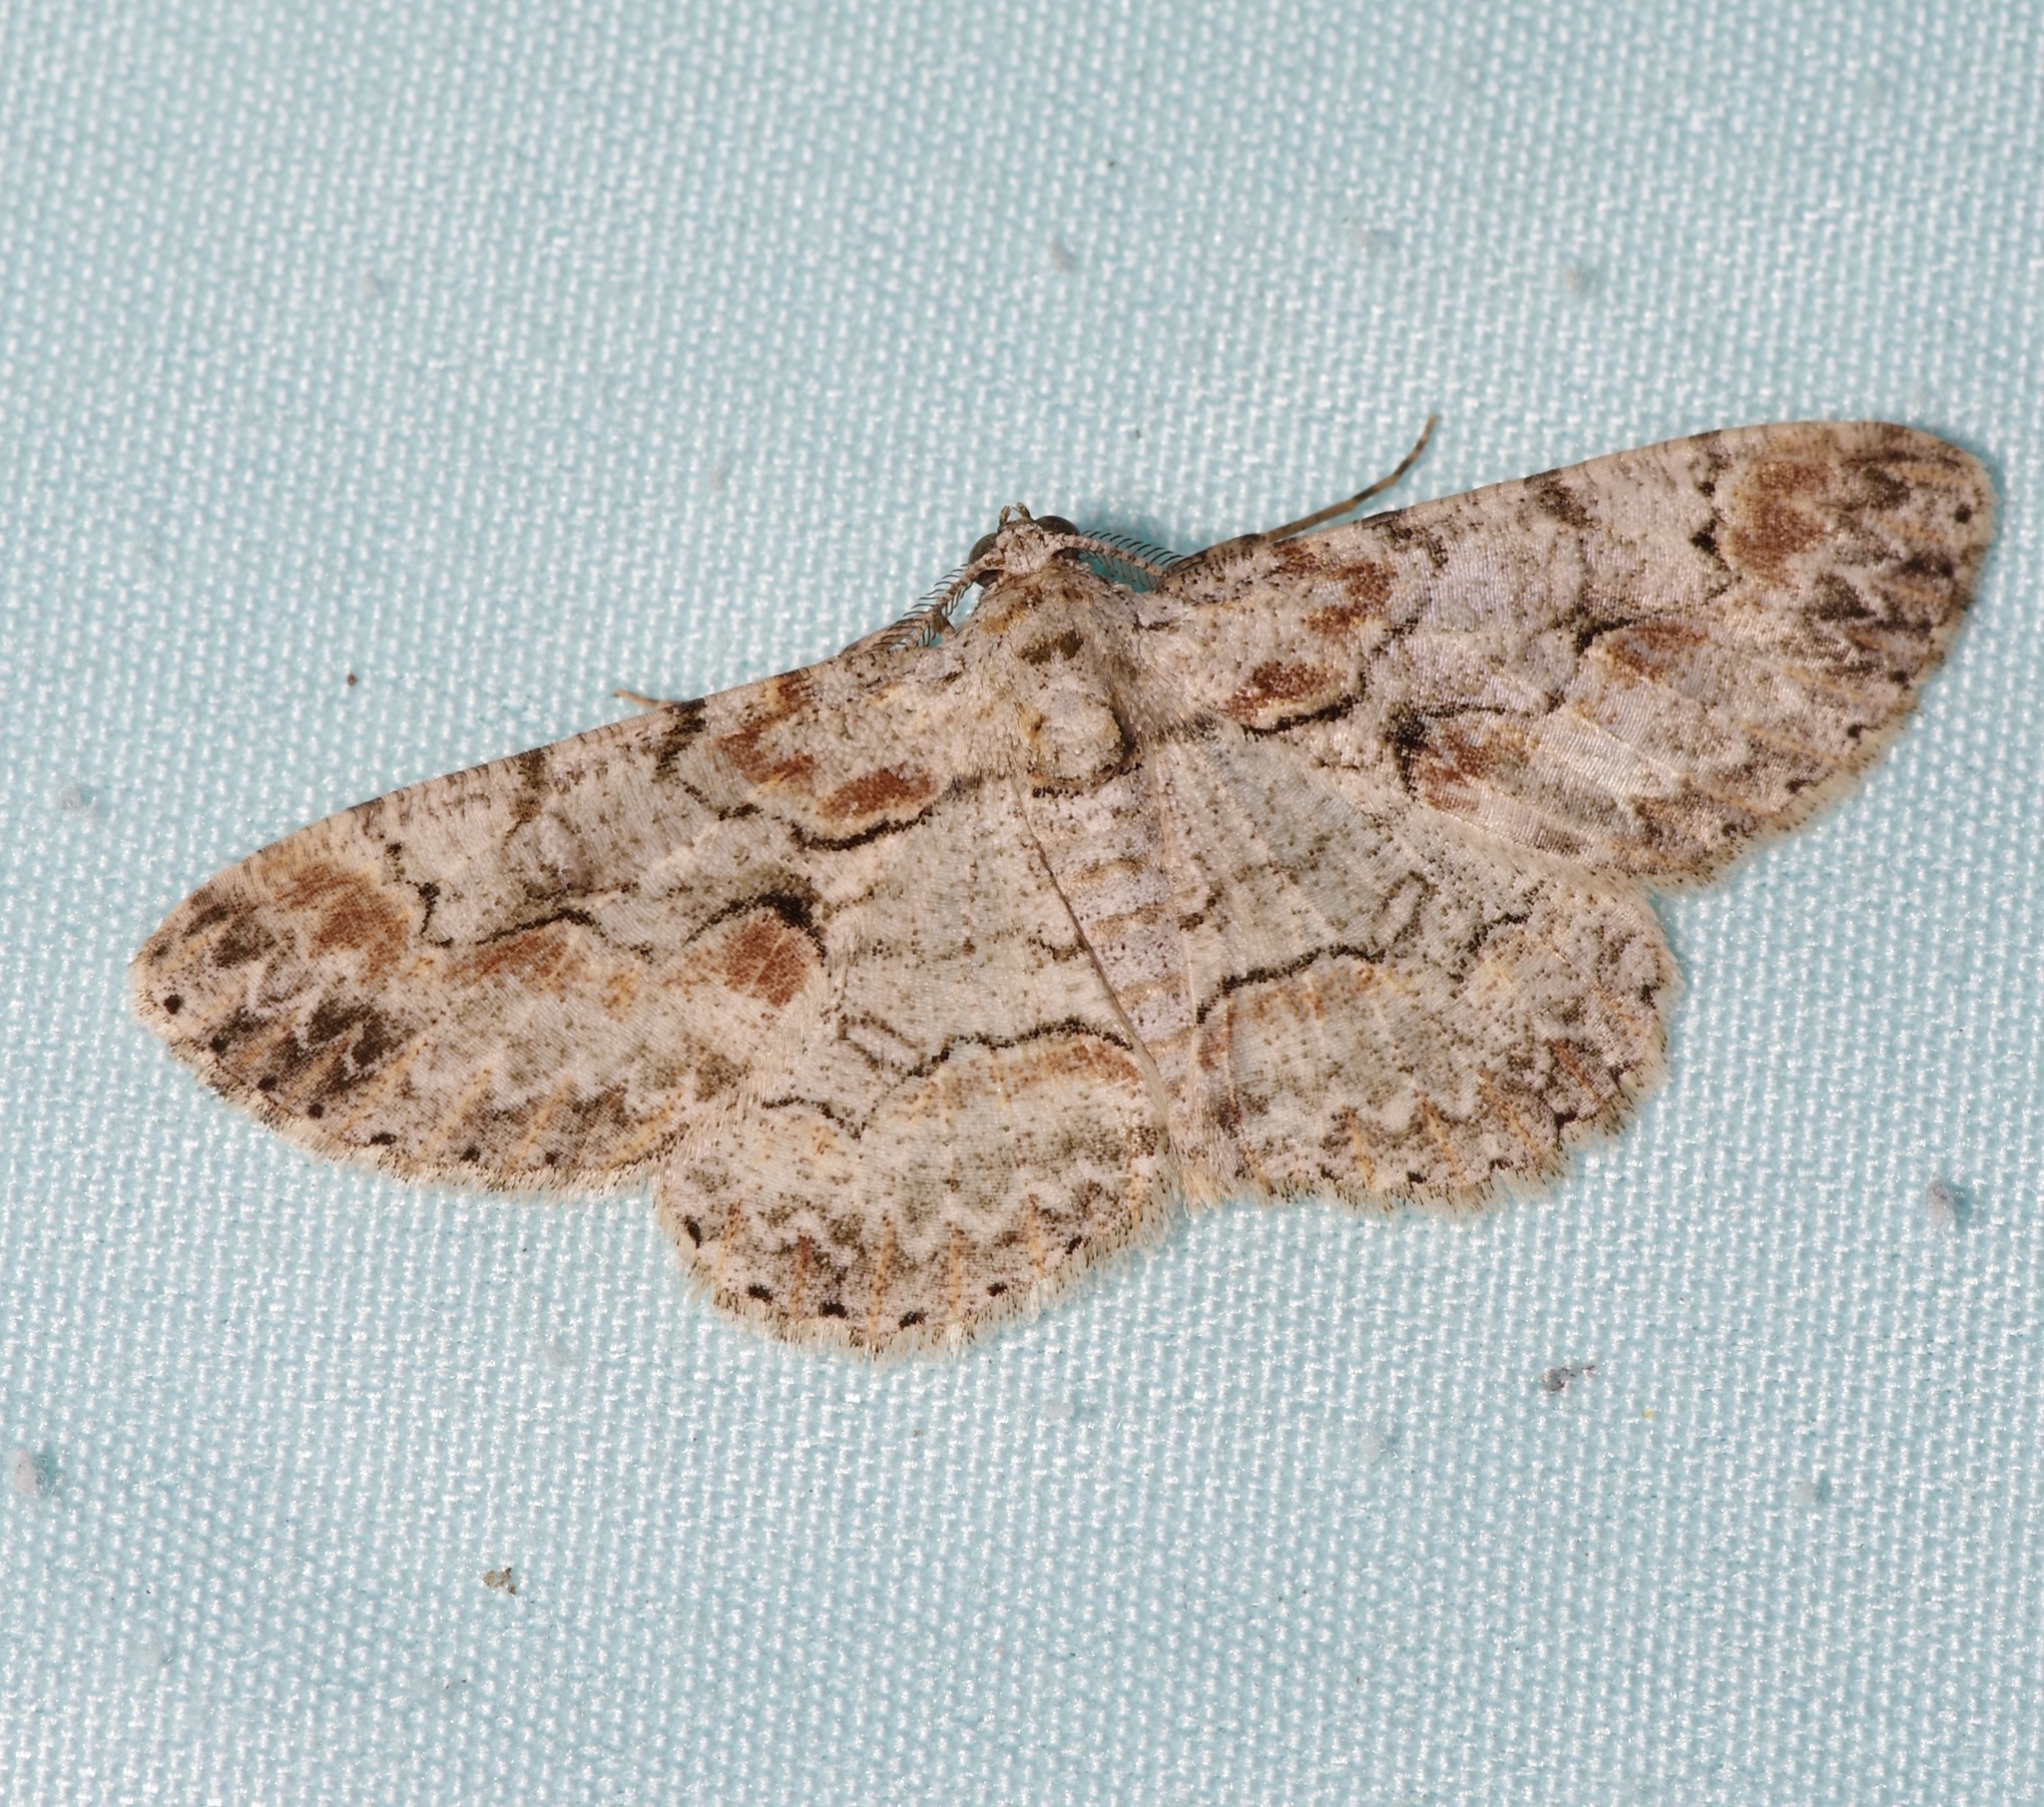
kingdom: Animalia
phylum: Arthropoda
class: Insecta
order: Lepidoptera
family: Geometridae
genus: Iridopsis
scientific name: Iridopsis defectaria
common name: Brown-shaded gray
